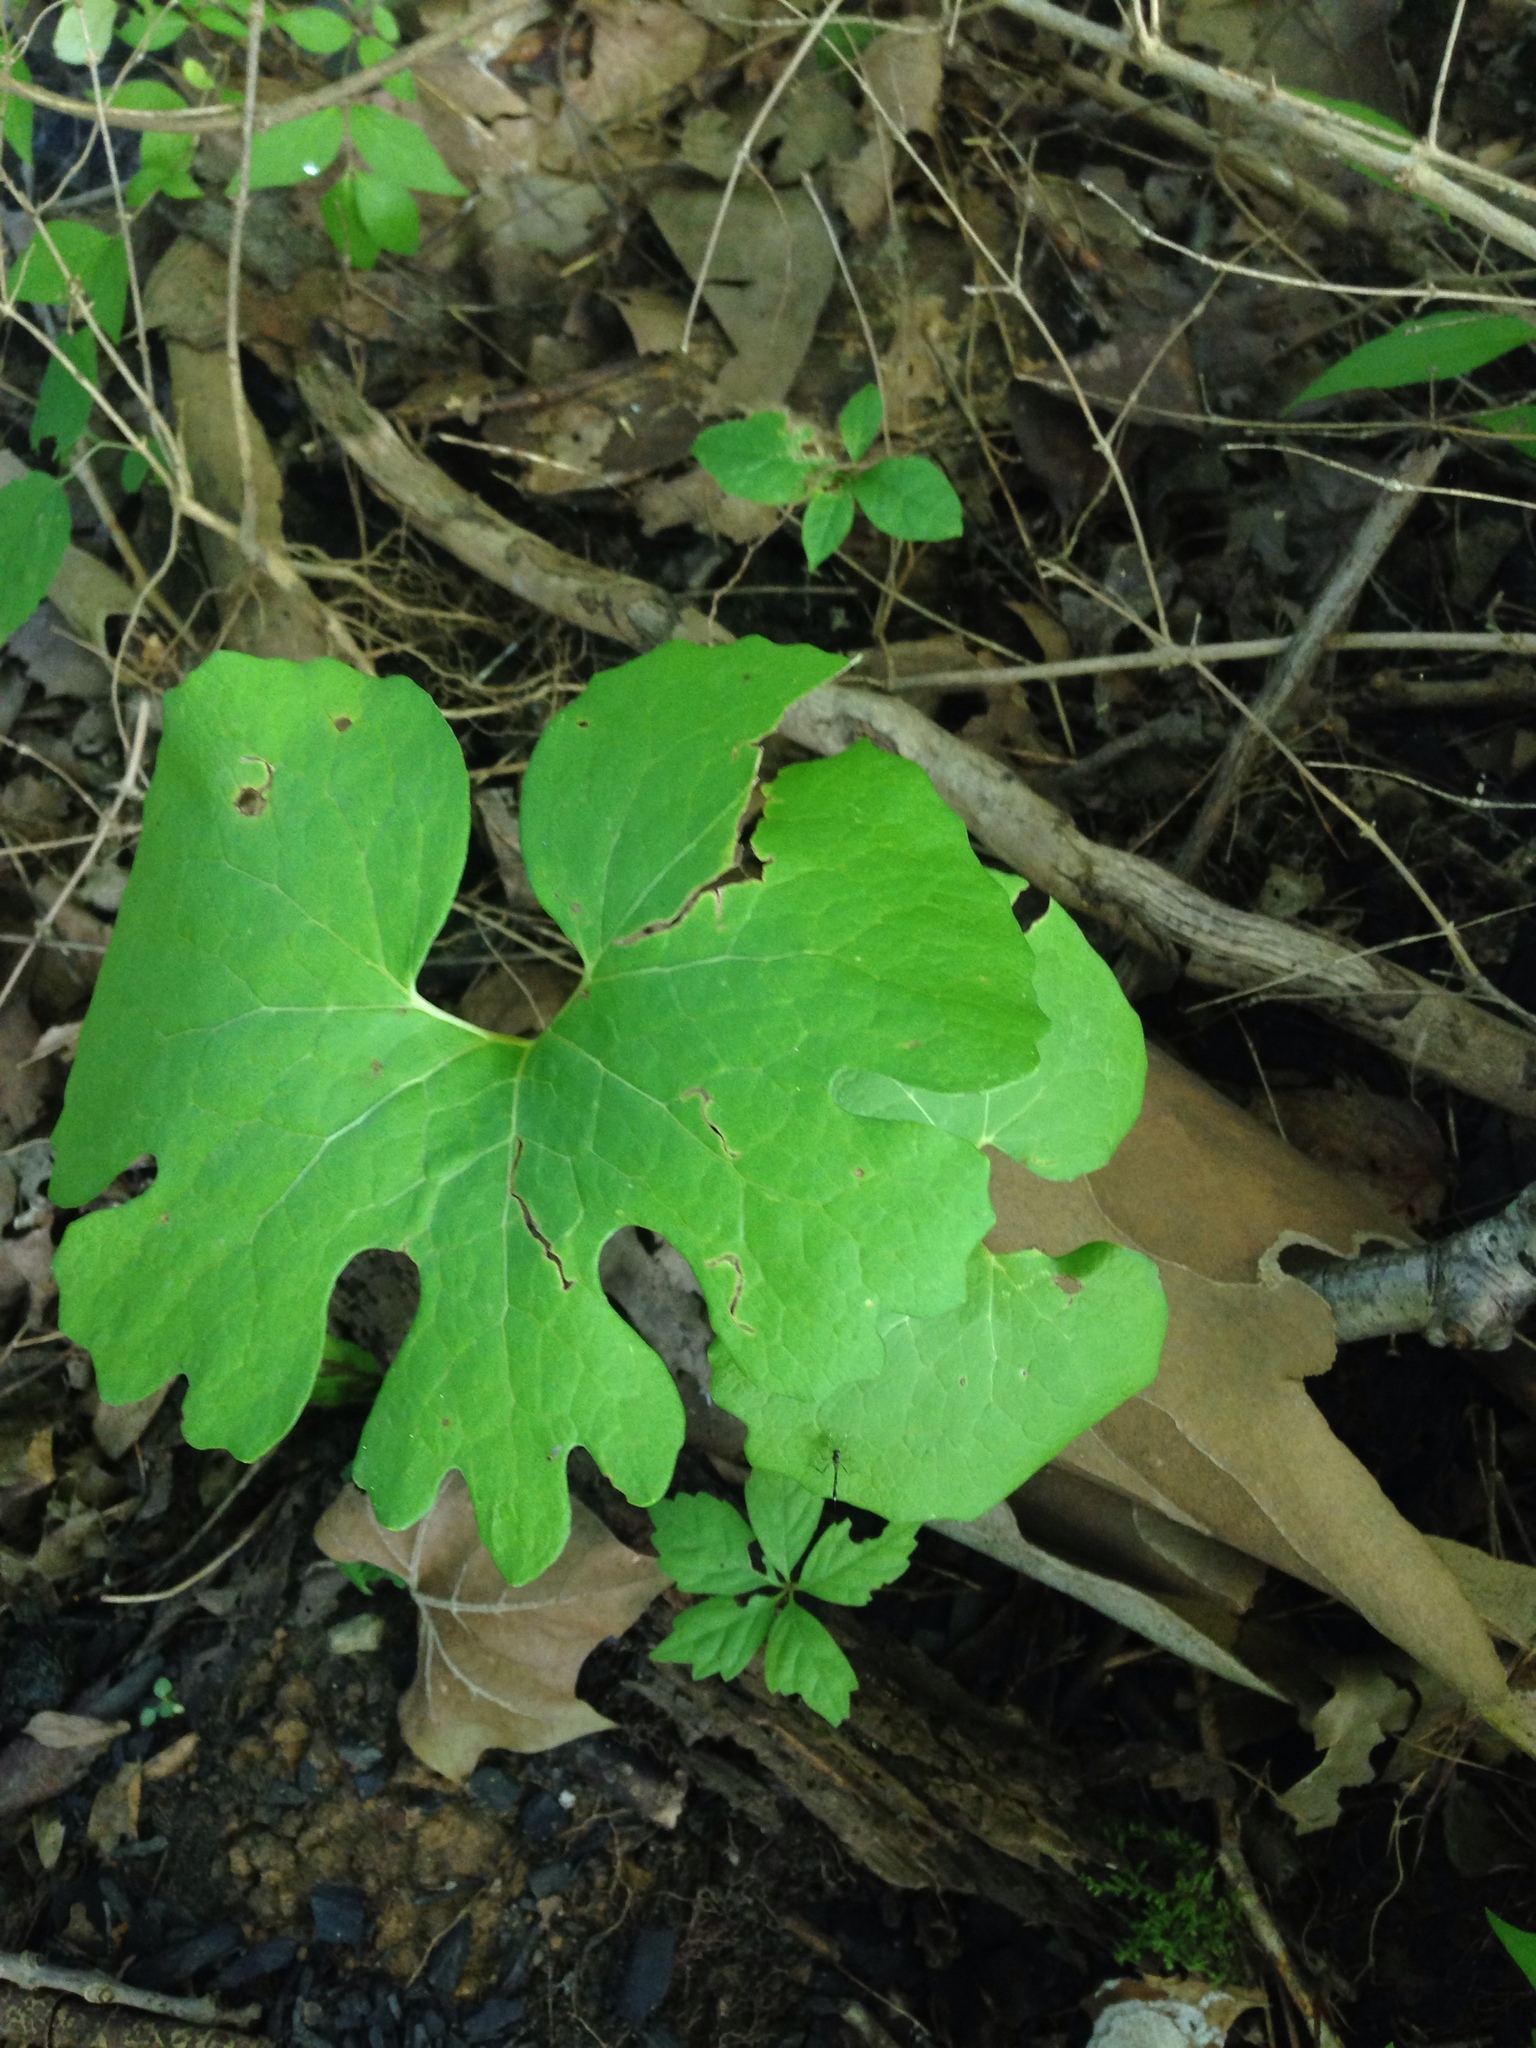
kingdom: Plantae
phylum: Tracheophyta
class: Magnoliopsida
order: Ranunculales
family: Papaveraceae
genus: Sanguinaria
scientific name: Sanguinaria canadensis
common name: Bloodroot
